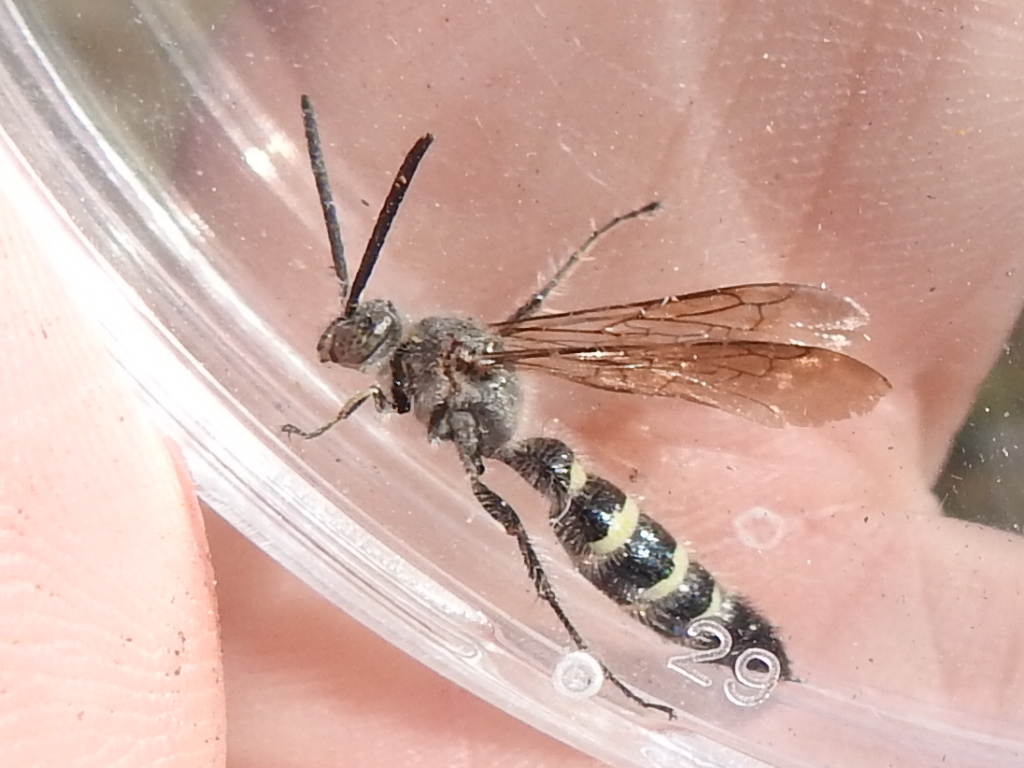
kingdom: Animalia
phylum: Arthropoda
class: Insecta
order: Hymenoptera
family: Scoliidae
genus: Dielis
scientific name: Dielis tolteca
